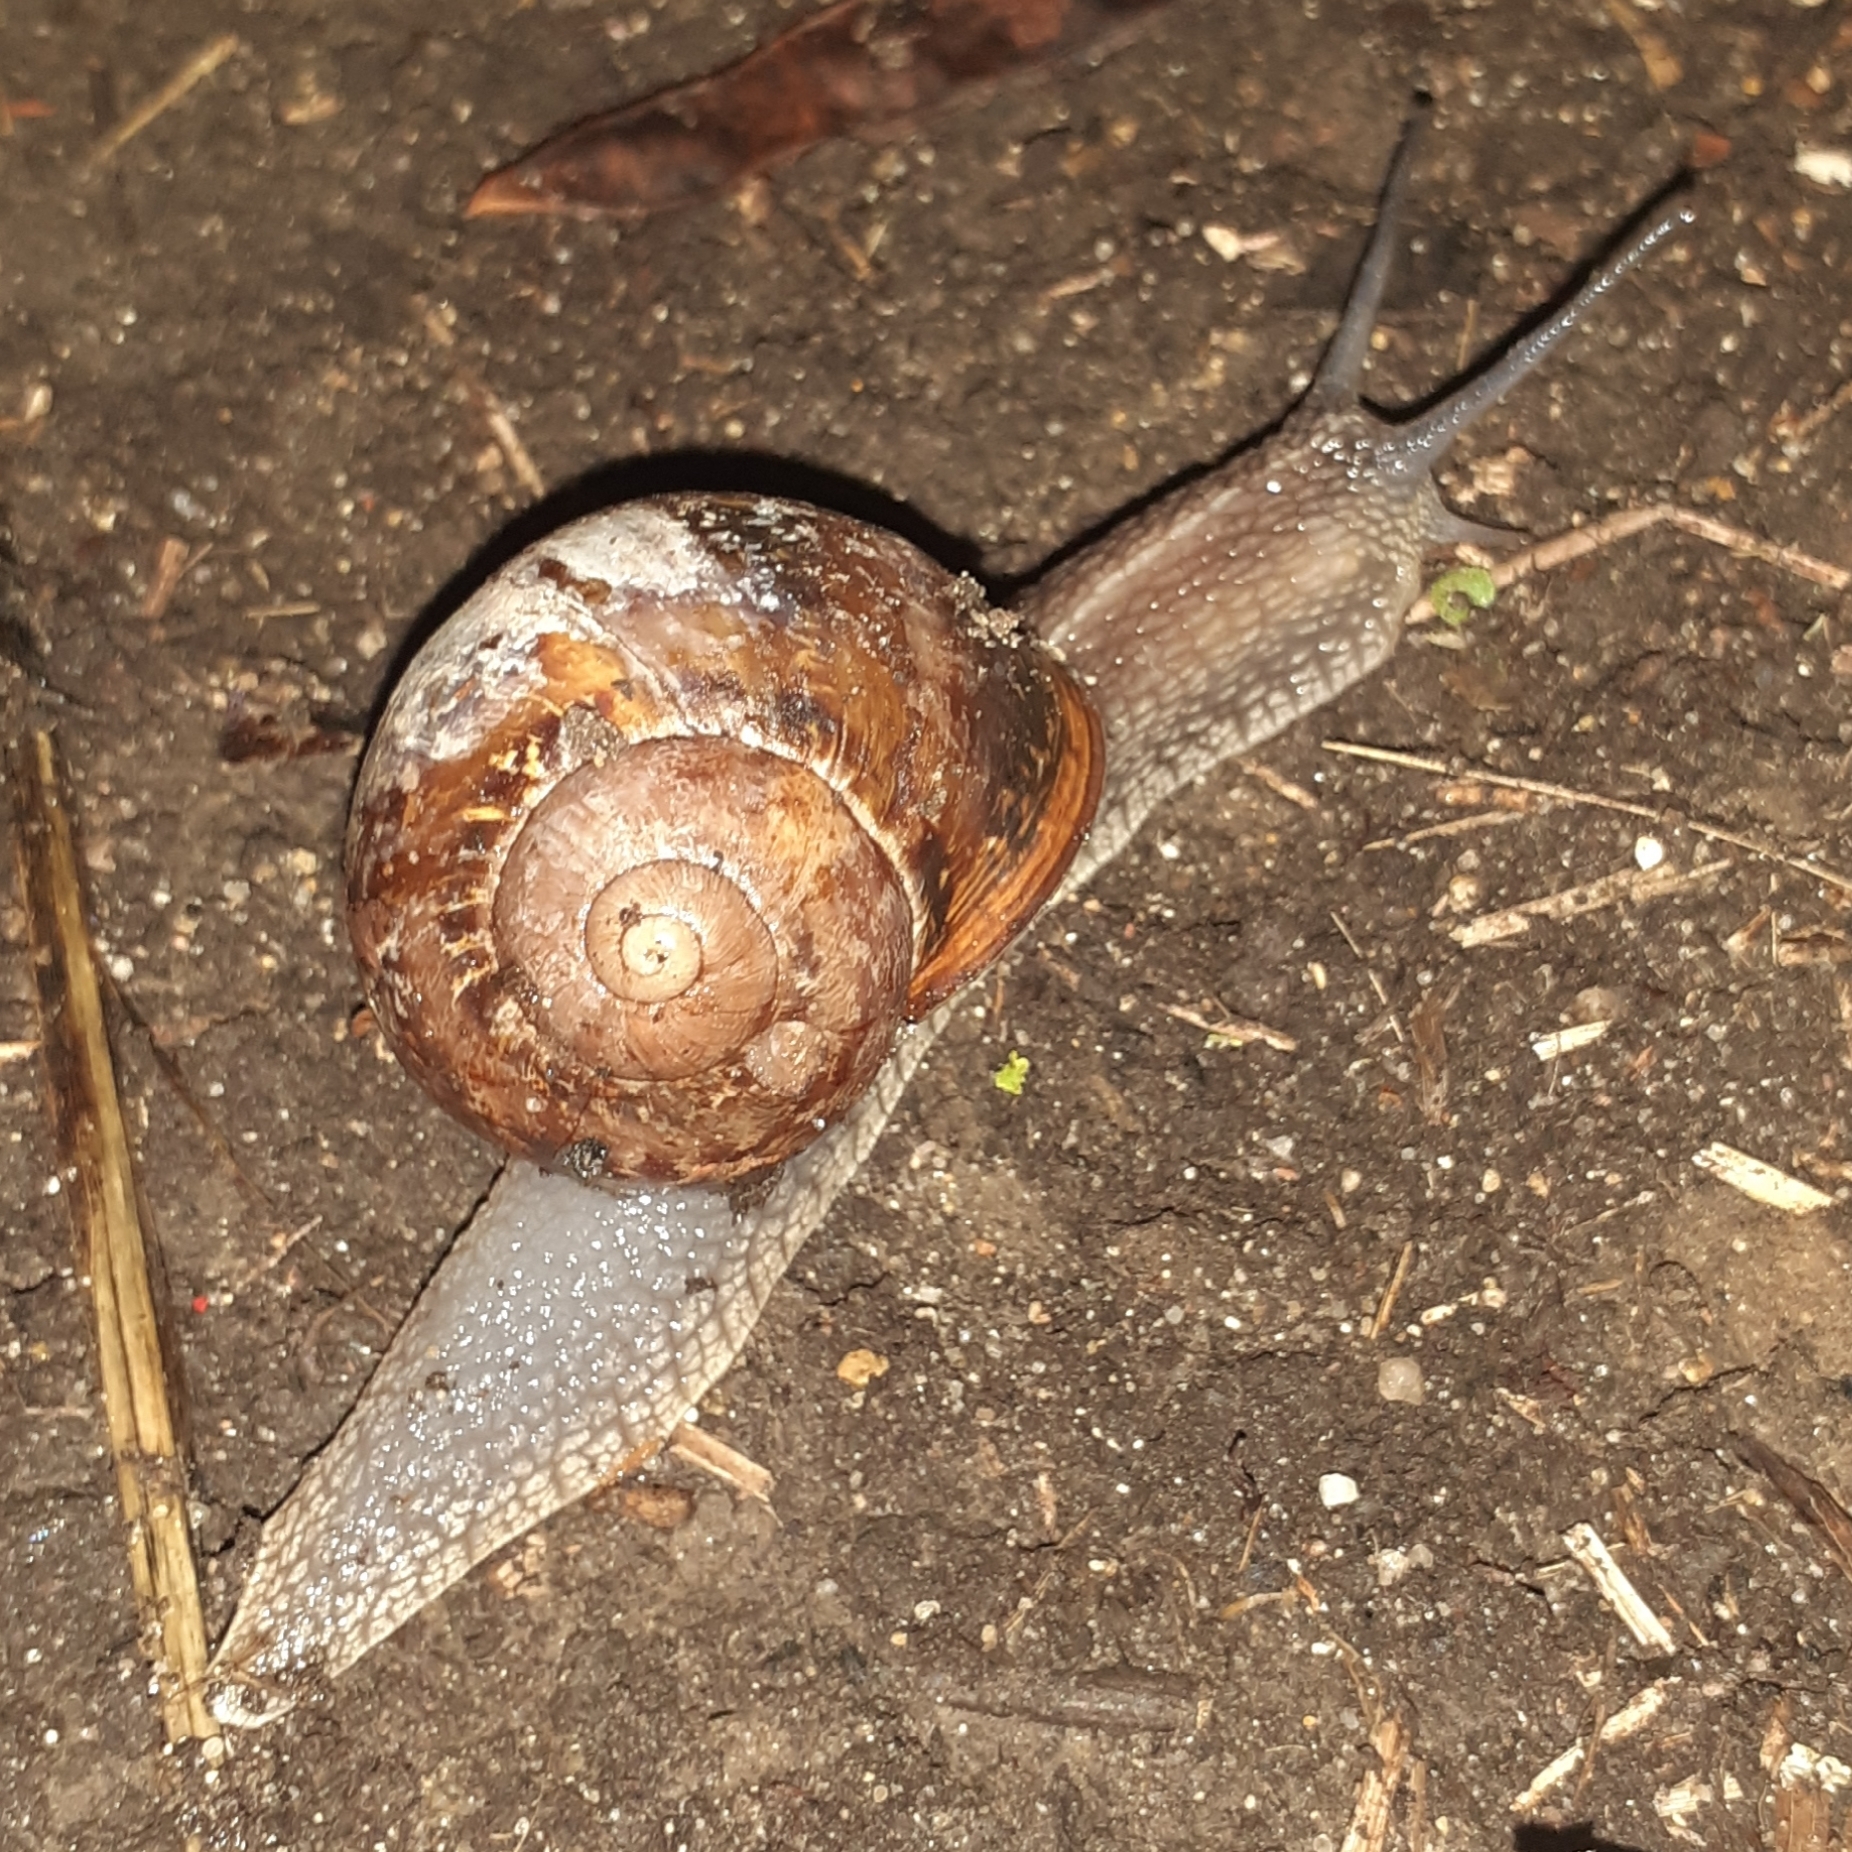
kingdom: Animalia
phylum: Mollusca
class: Gastropoda
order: Stylommatophora
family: Helicidae
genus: Cornu
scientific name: Cornu aspersum
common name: Brown garden snail
